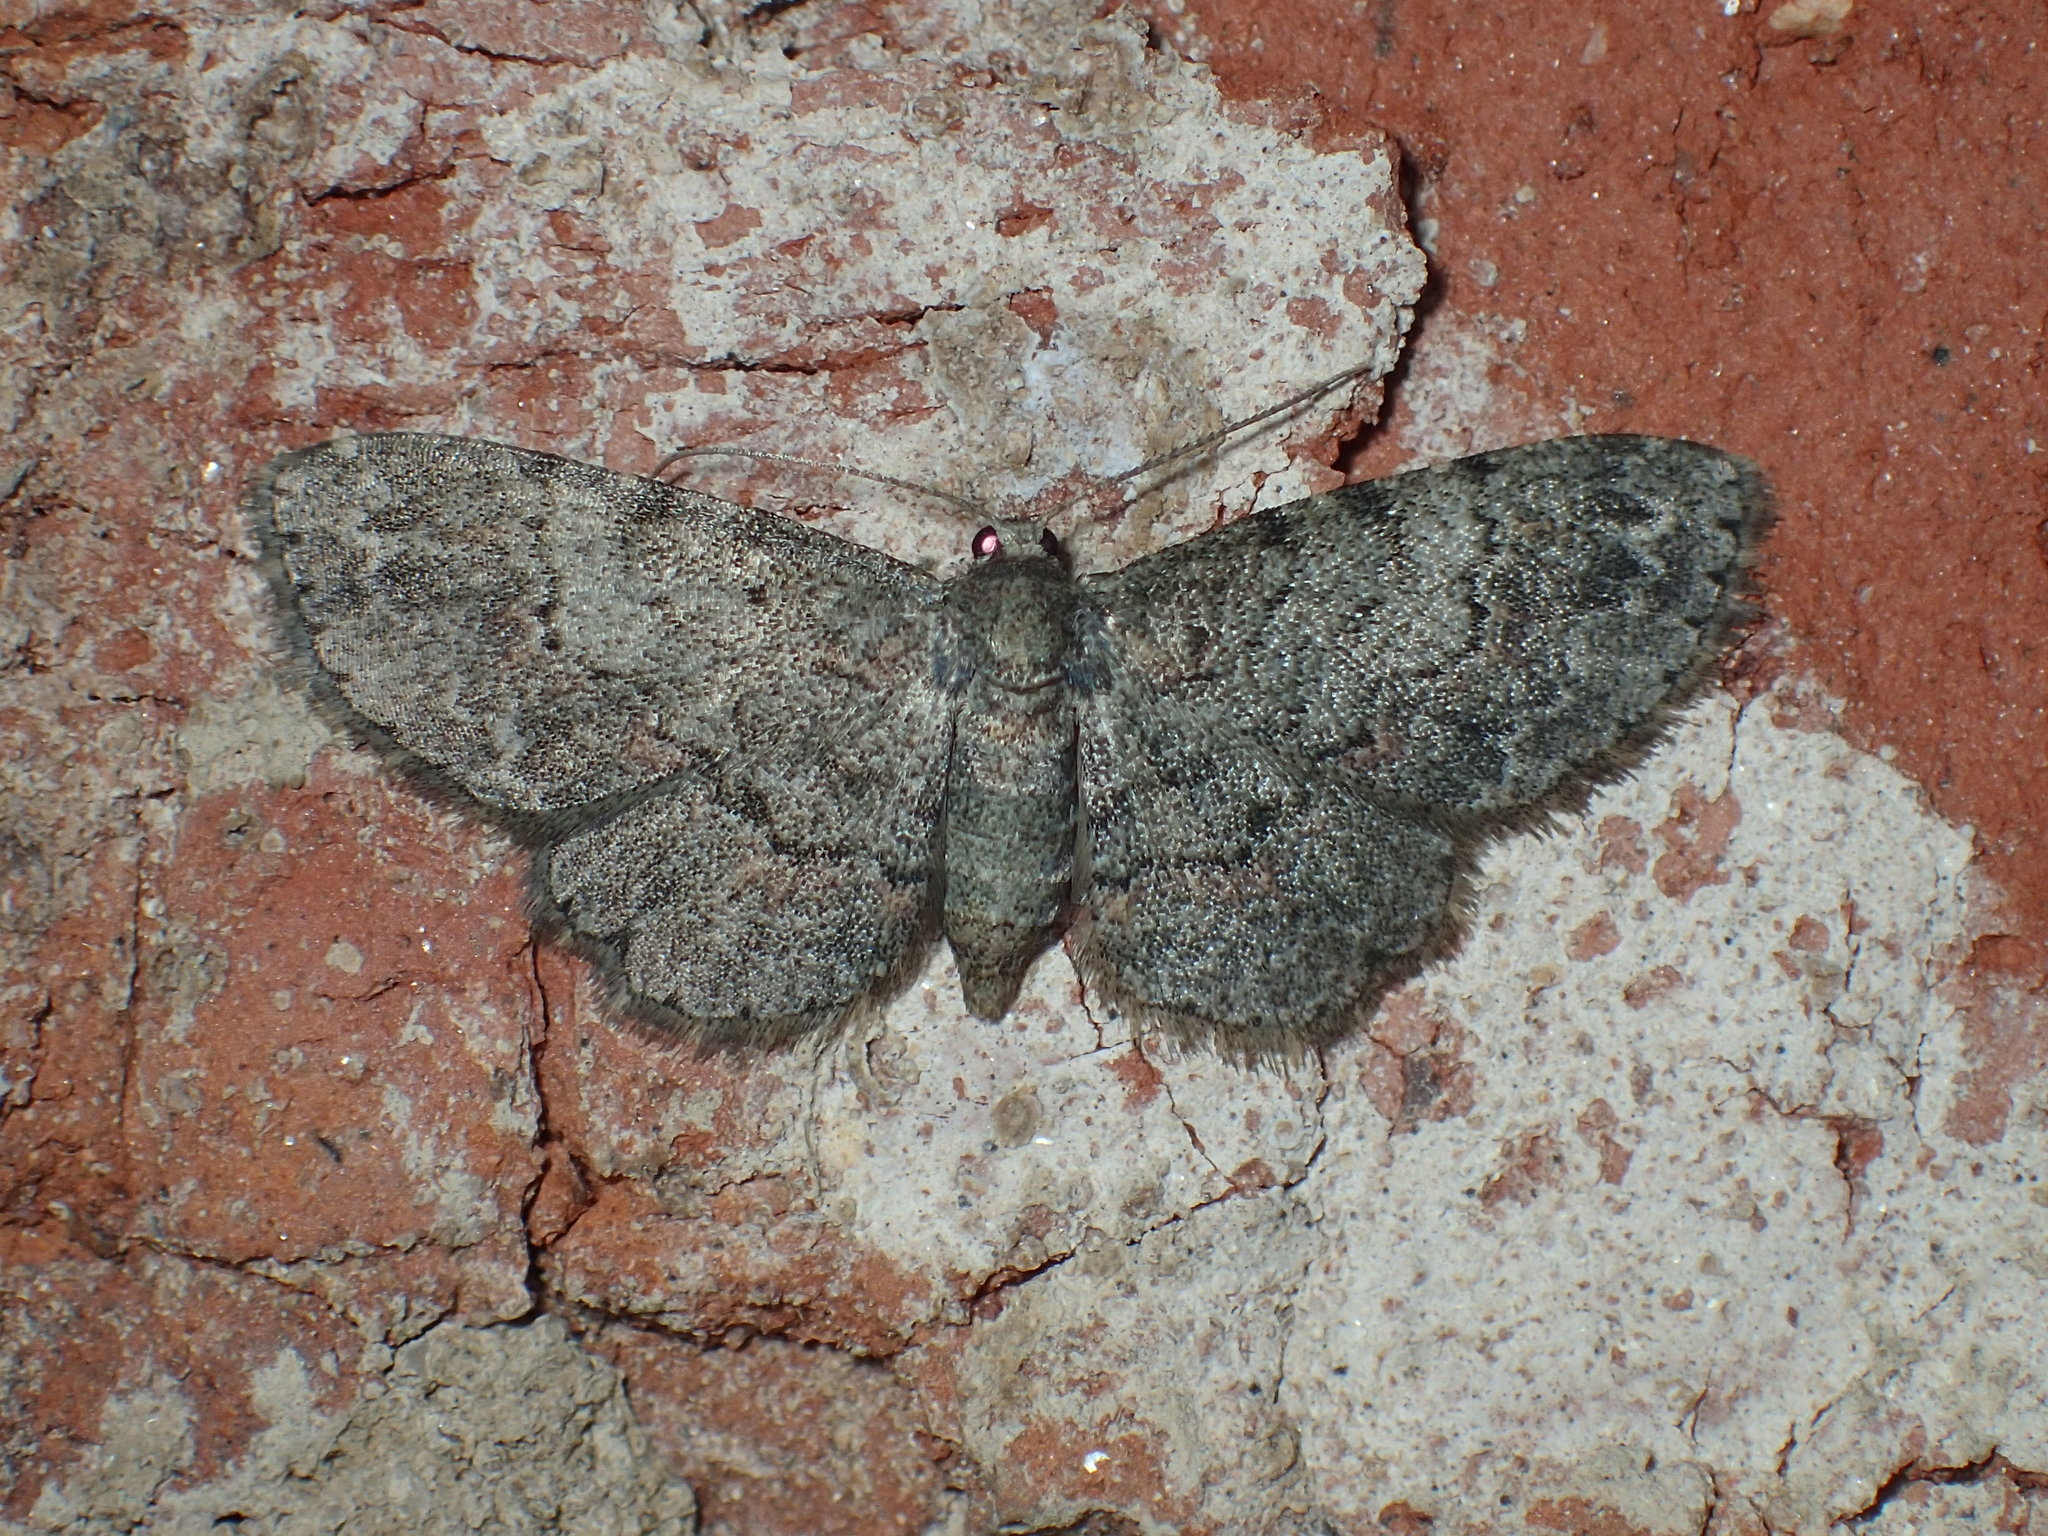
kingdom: Animalia
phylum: Arthropoda
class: Insecta
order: Lepidoptera
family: Geometridae
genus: Glenoides
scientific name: Glenoides texanaria
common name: Texas gray
